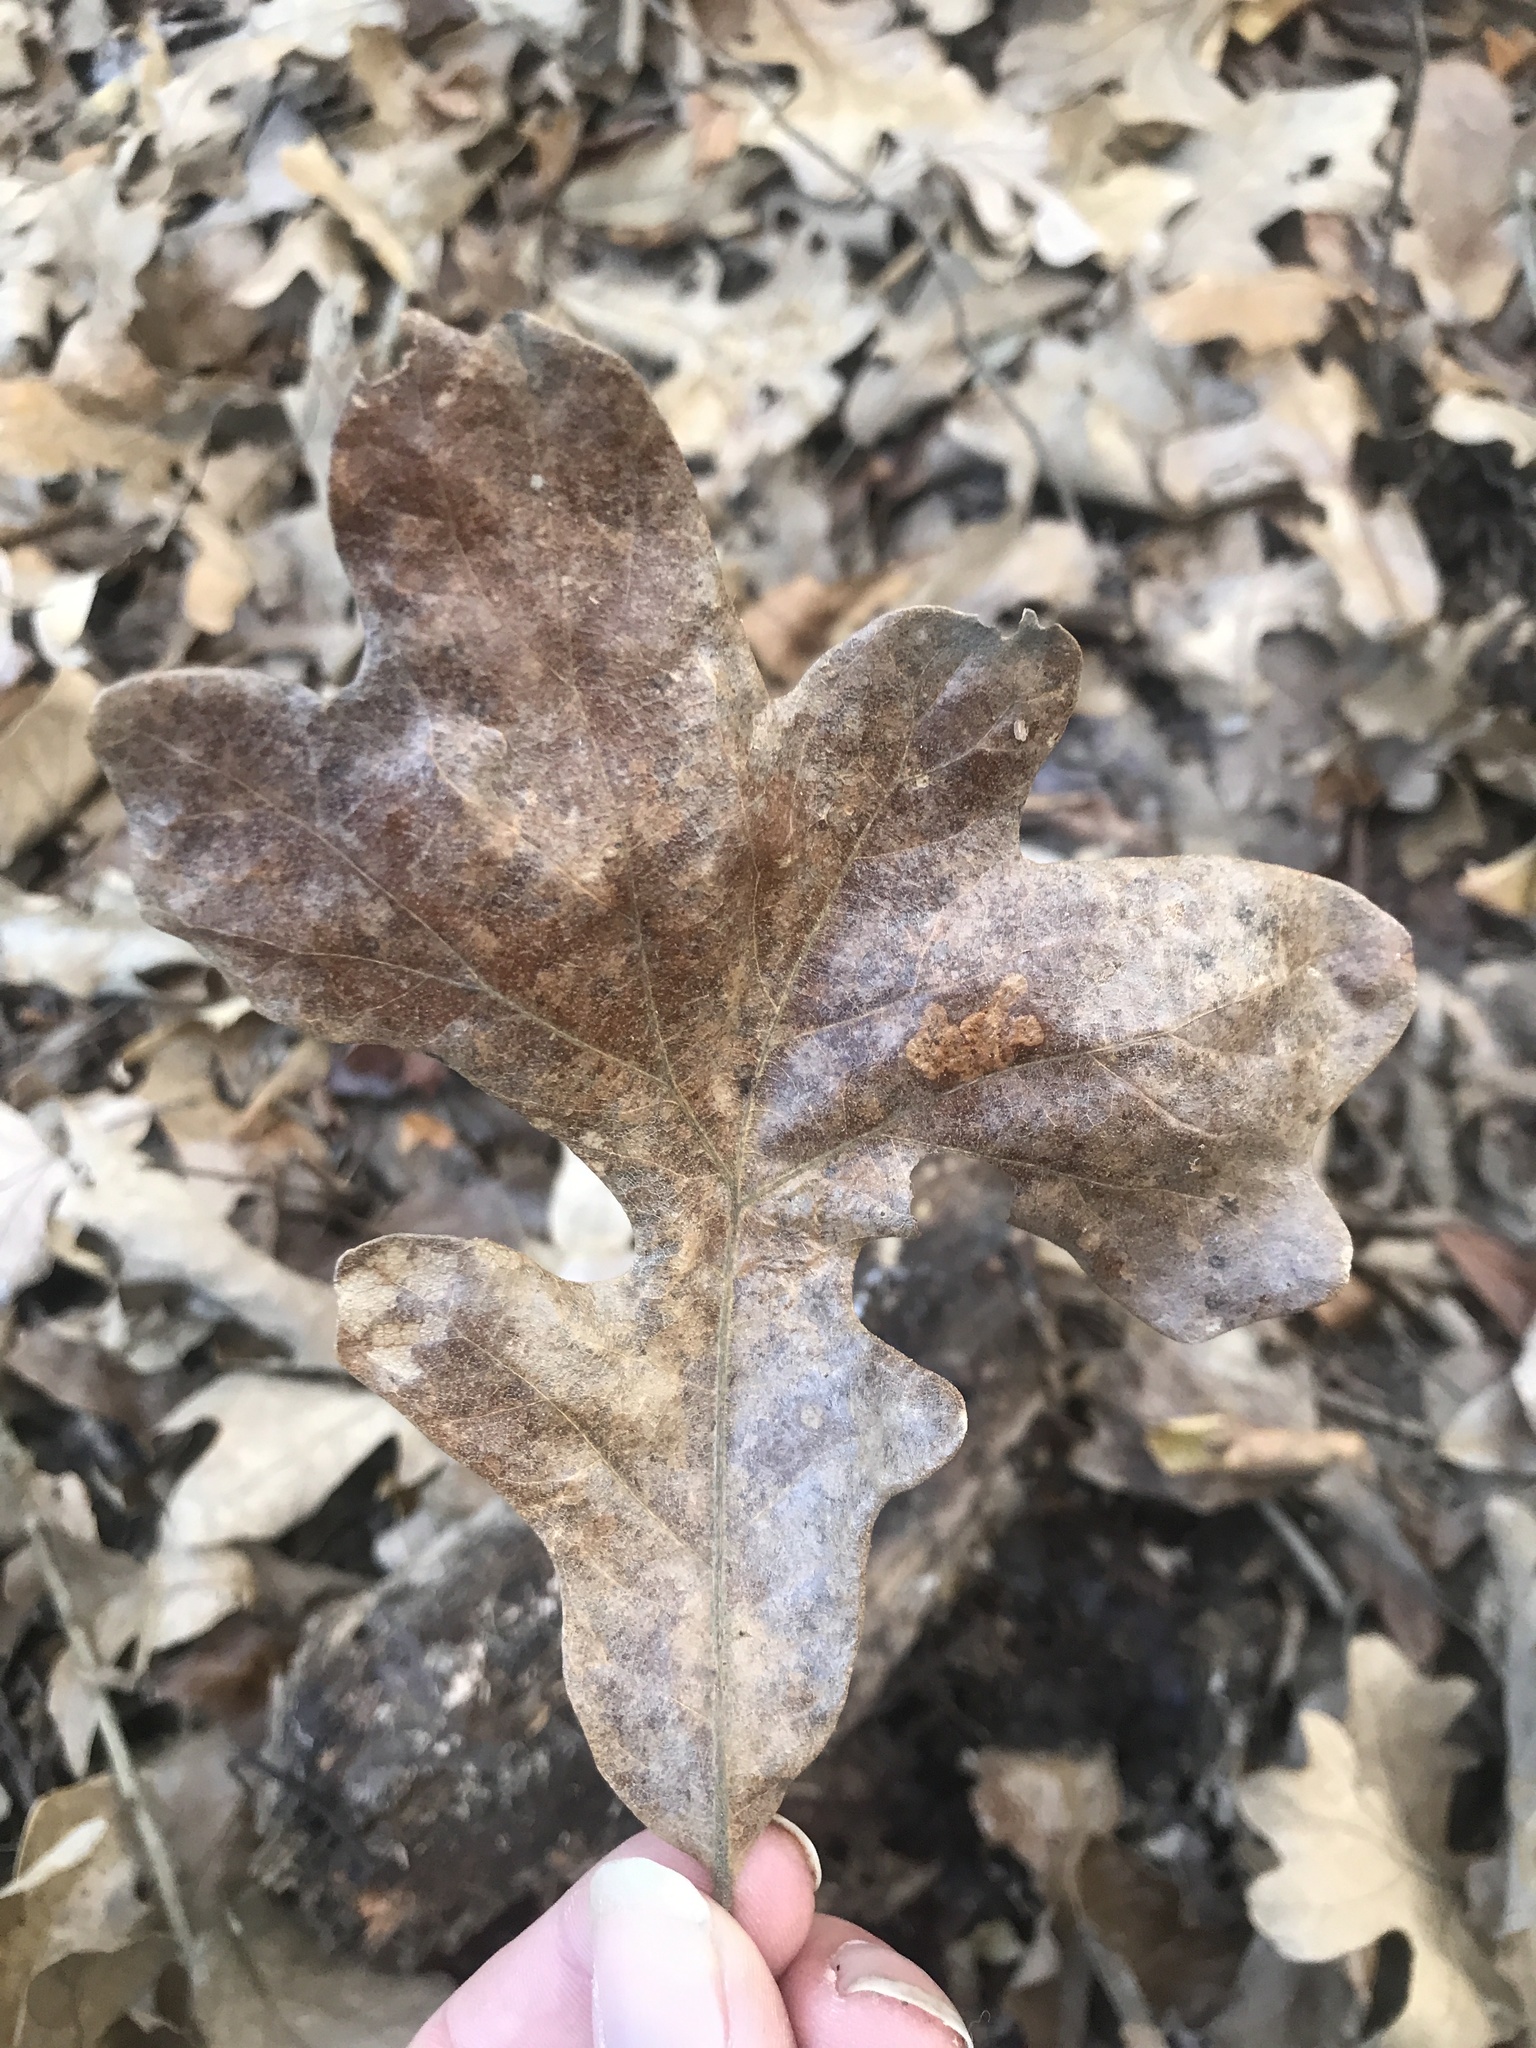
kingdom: Plantae
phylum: Tracheophyta
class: Magnoliopsida
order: Fagales
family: Fagaceae
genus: Quercus
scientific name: Quercus stellata
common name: Post oak
